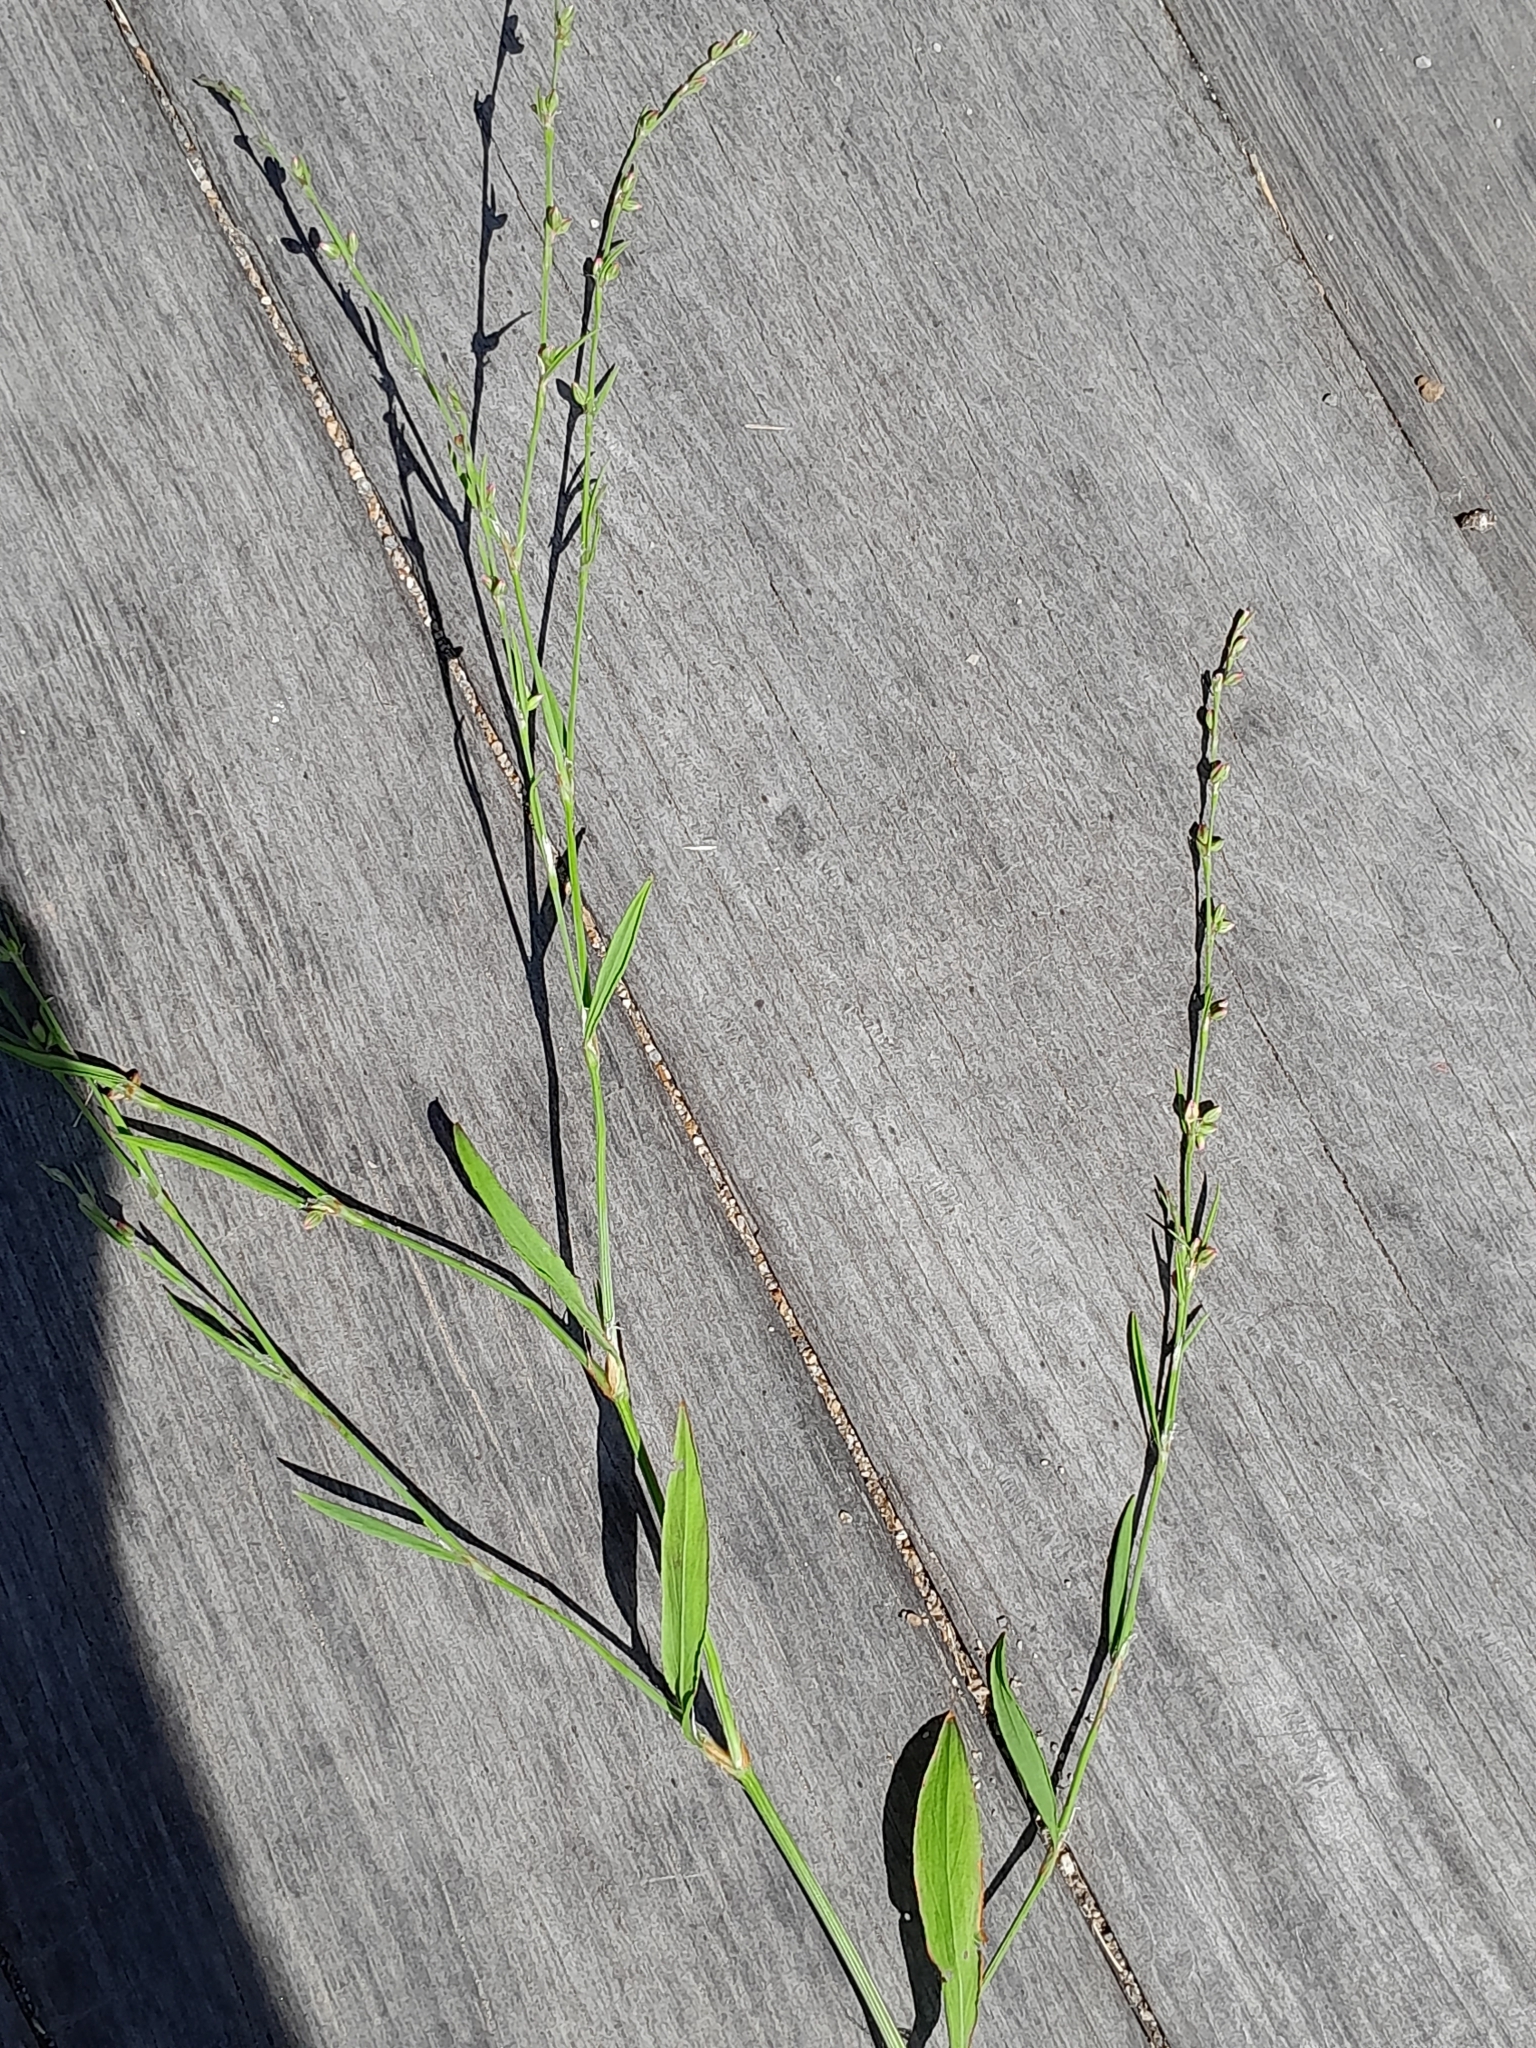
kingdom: Plantae
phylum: Tracheophyta
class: Magnoliopsida
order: Caryophyllales
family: Polygonaceae
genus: Polygonum
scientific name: Polygonum bellardii
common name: Narrowleaf knotweed
